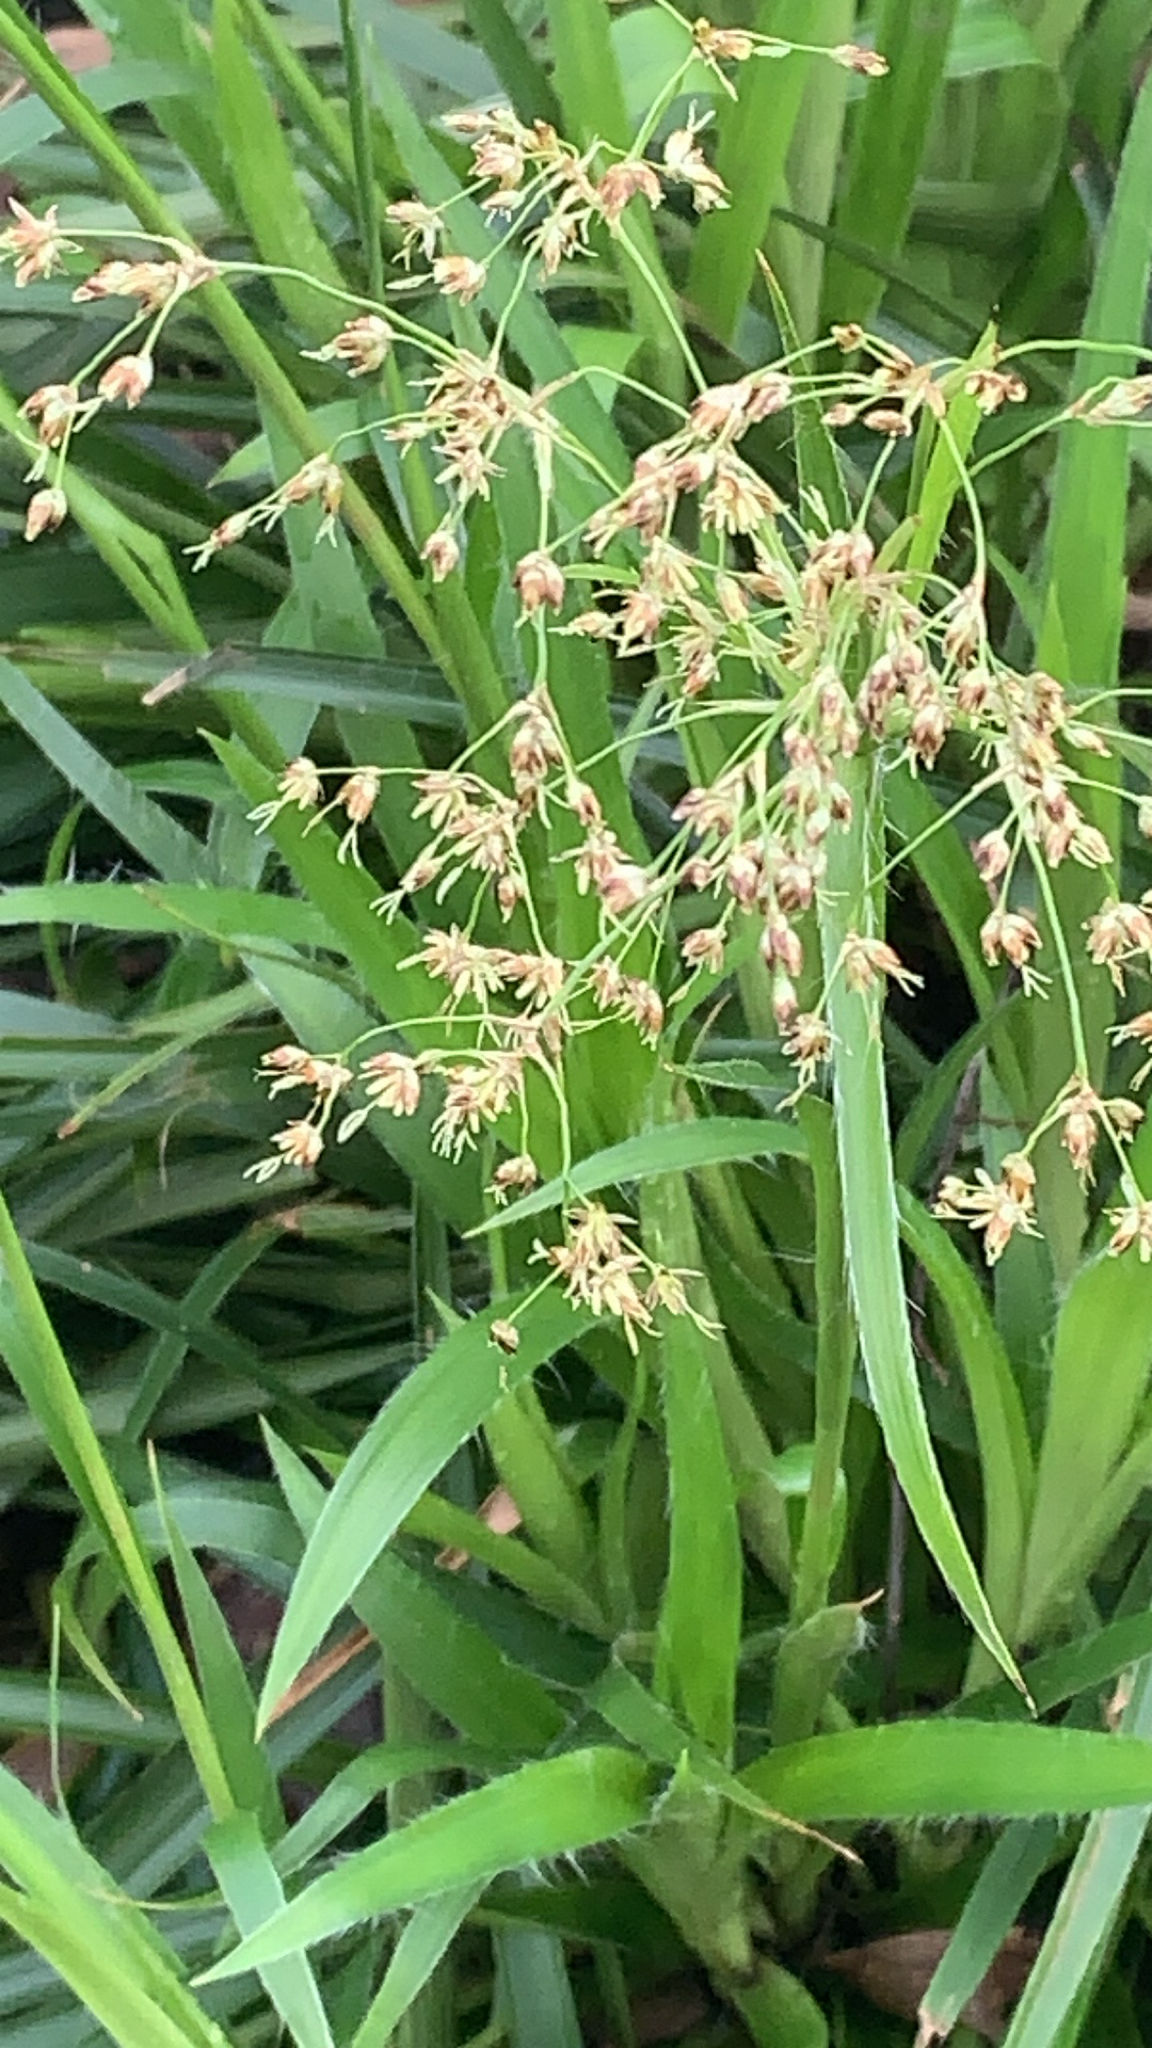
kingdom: Plantae
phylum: Tracheophyta
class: Liliopsida
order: Poales
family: Juncaceae
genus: Luzula
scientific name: Luzula sylvatica
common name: Great wood-rush
